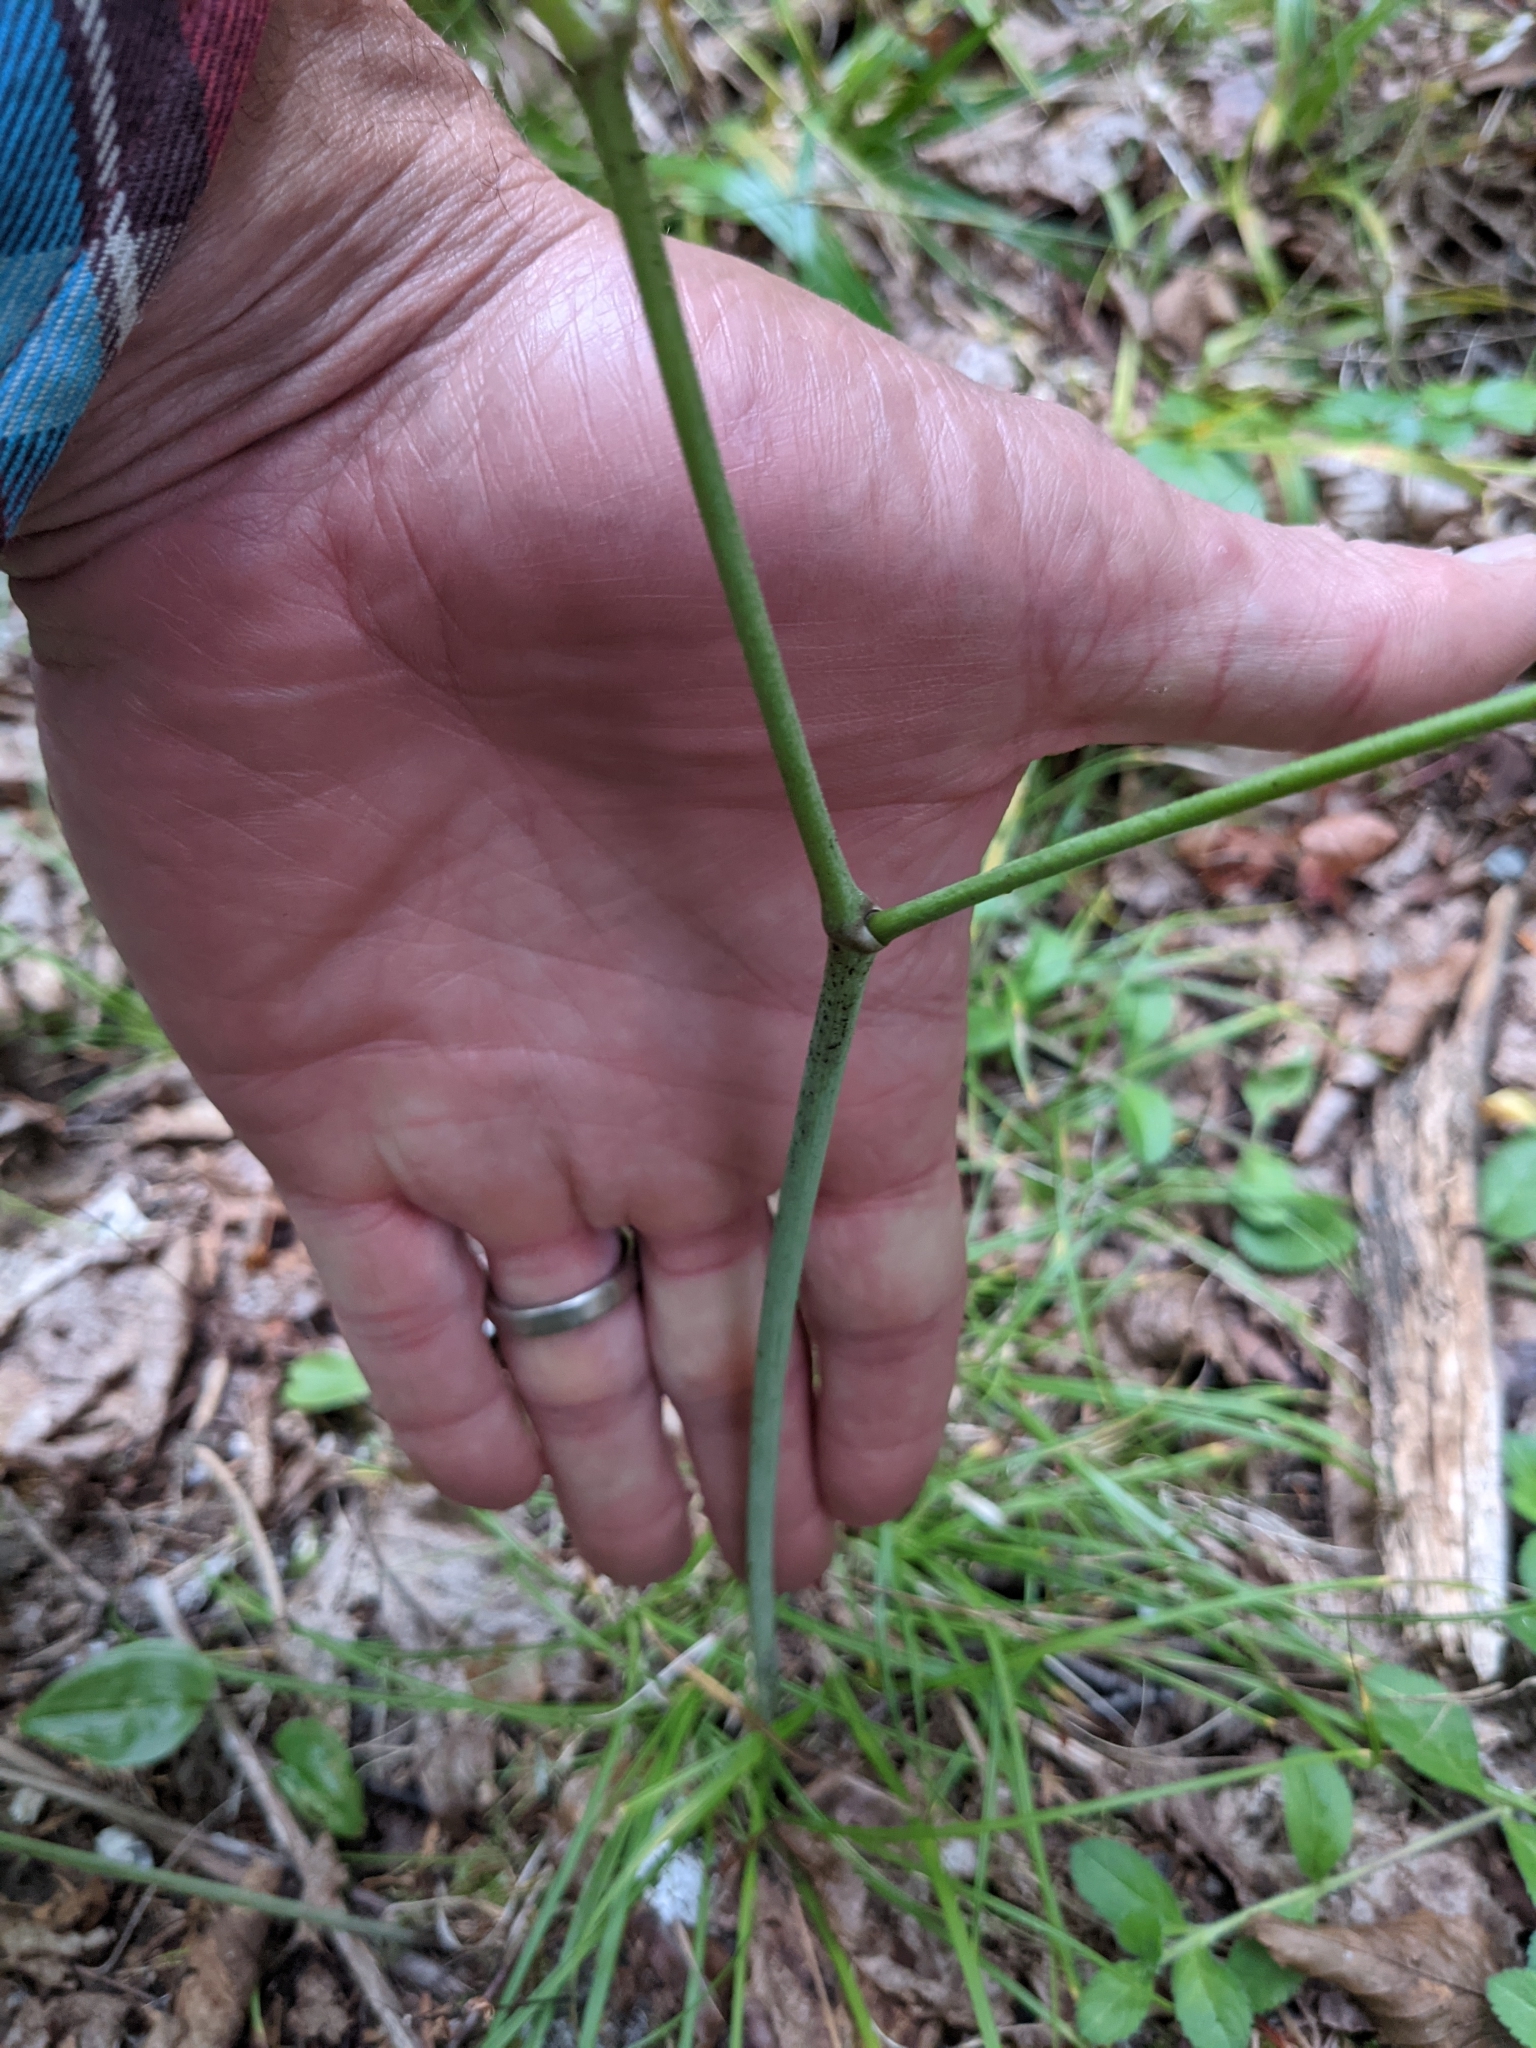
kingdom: Plantae
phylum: Tracheophyta
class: Magnoliopsida
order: Ranunculales
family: Ranunculaceae
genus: Actaea
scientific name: Actaea rubra
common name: Red baneberry
